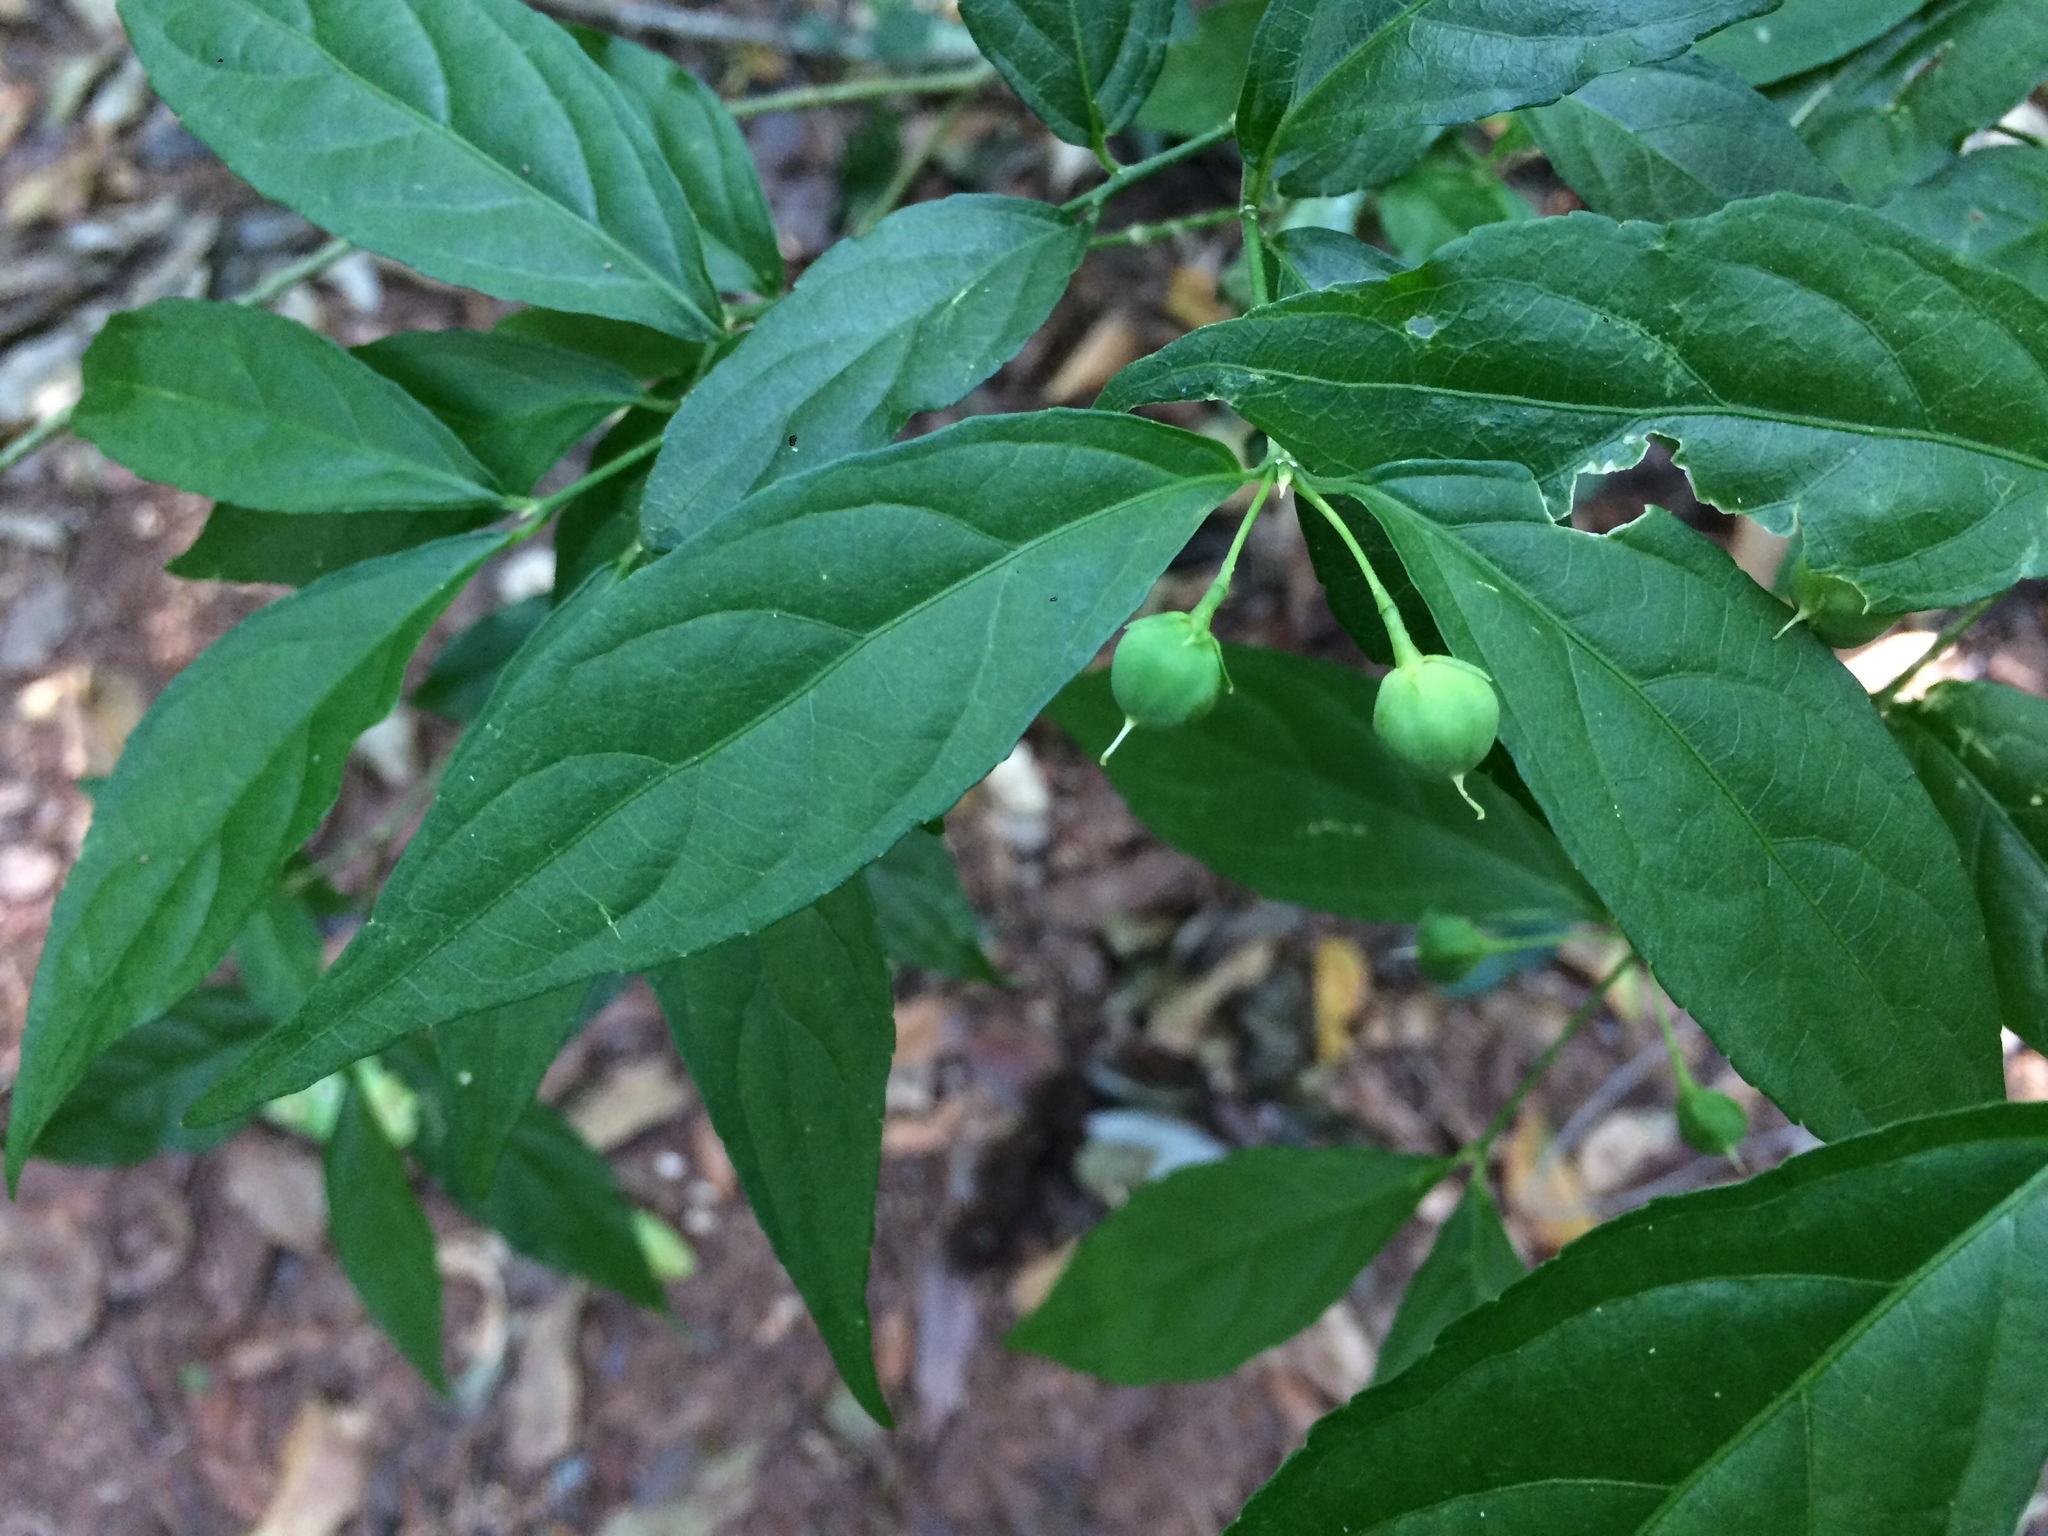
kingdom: Plantae
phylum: Tracheophyta
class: Magnoliopsida
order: Malpighiales
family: Violaceae
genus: Pombalia
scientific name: Pombalia bigibbosa
